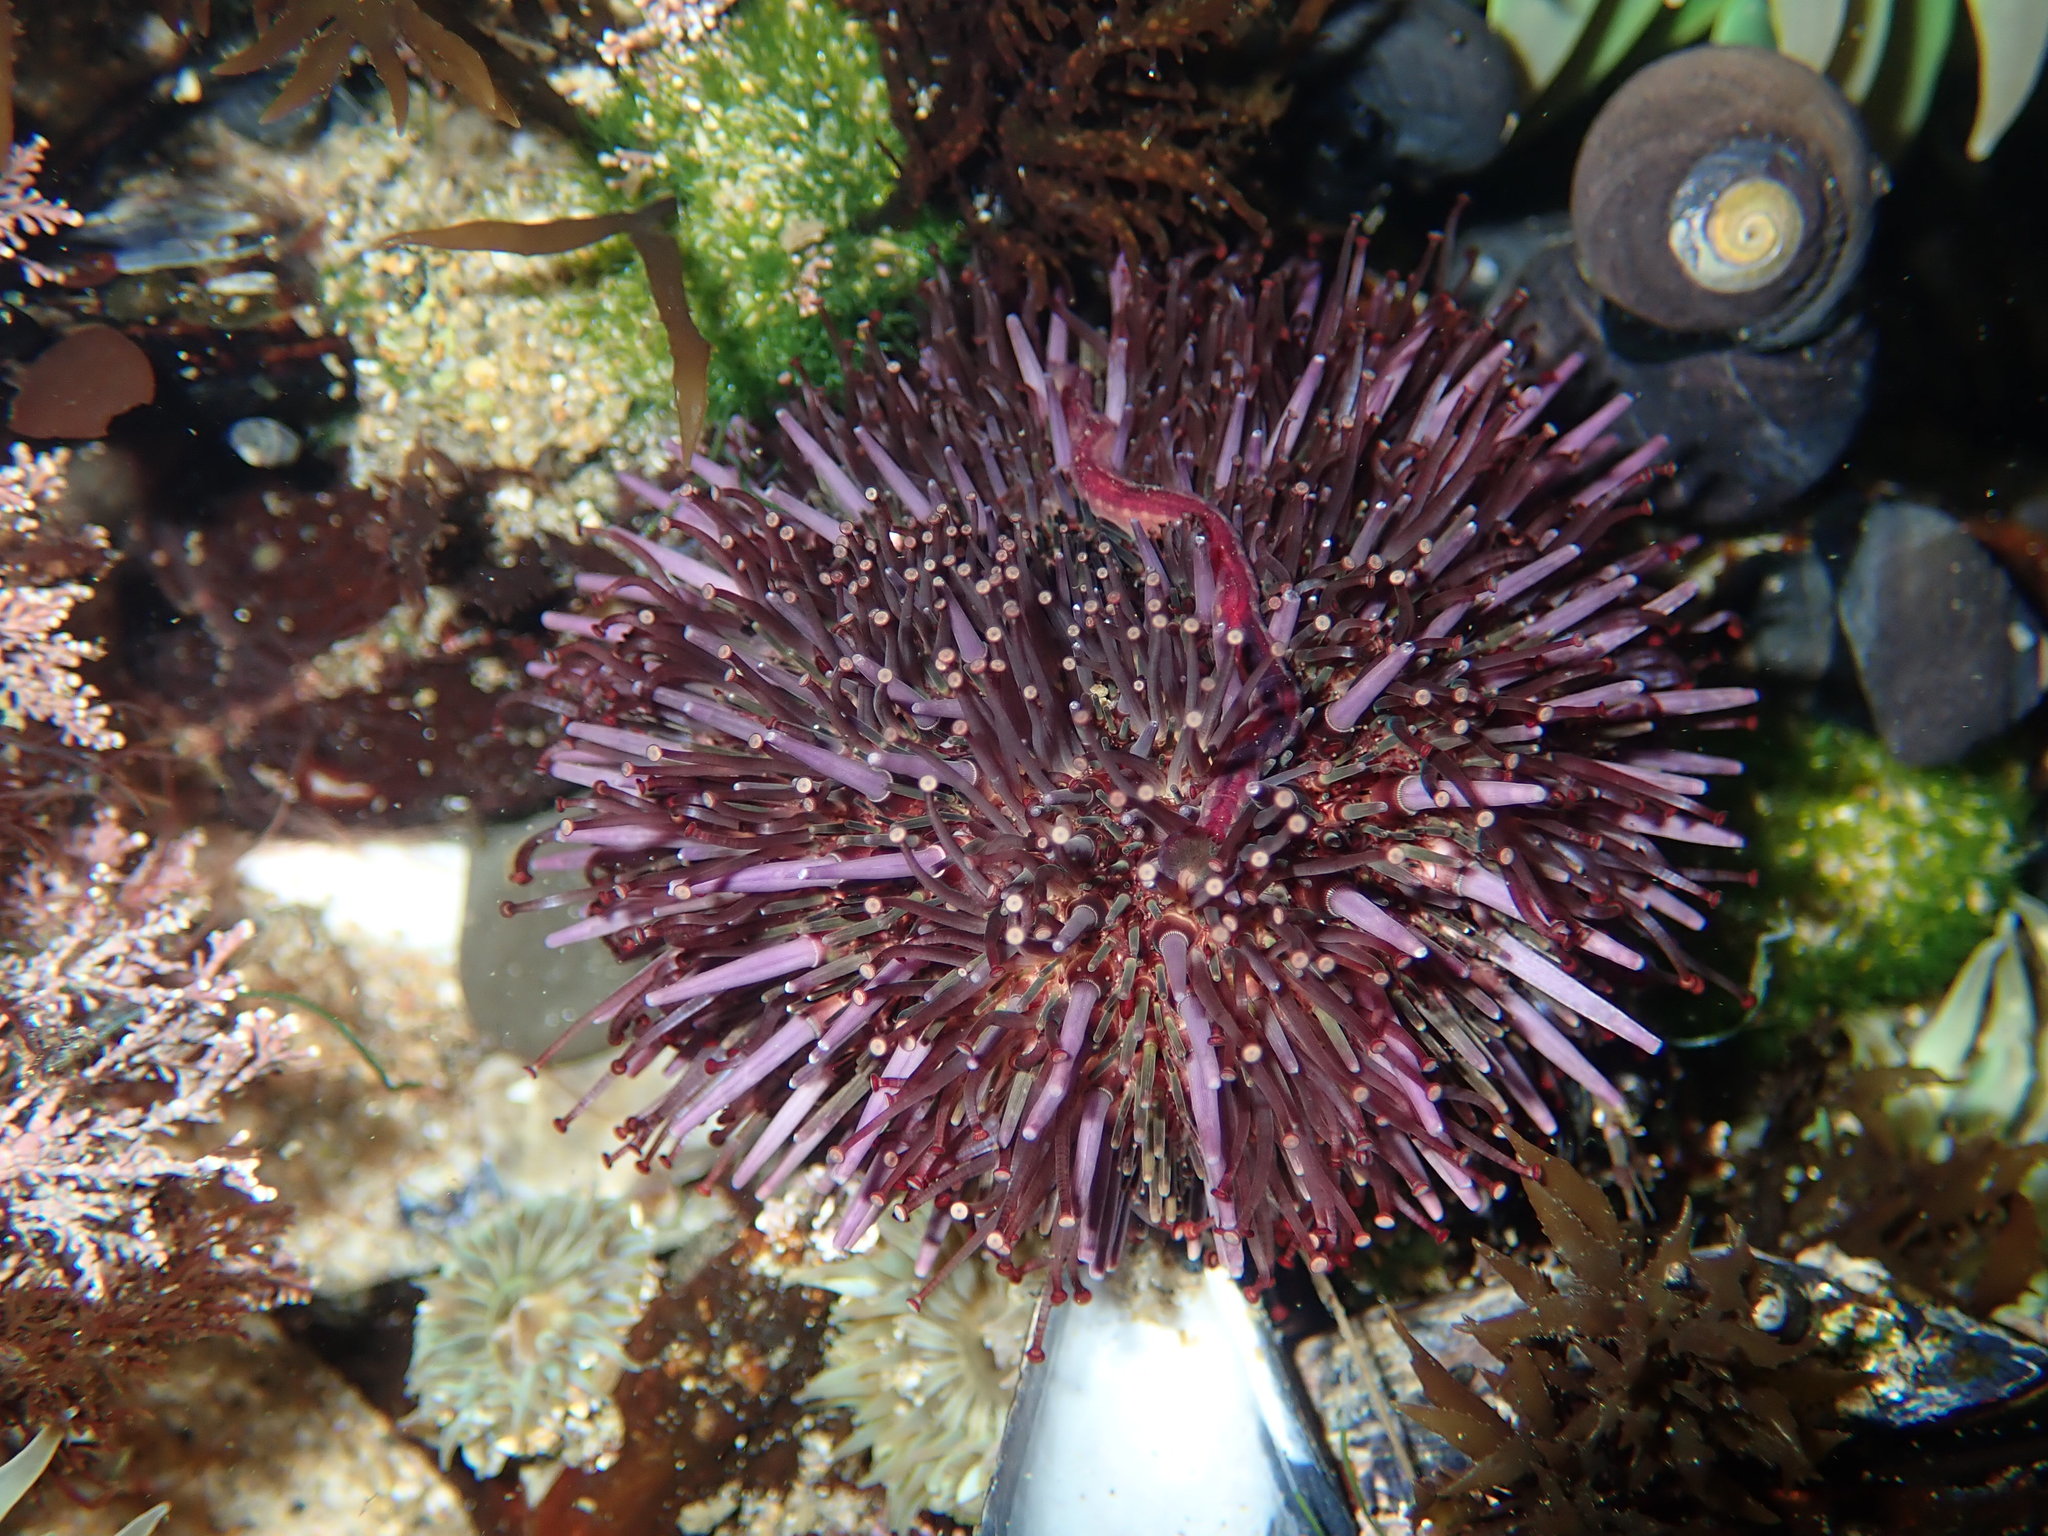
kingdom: Animalia
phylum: Annelida
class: Polychaeta
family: Flabelligeridae
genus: Flabesymbios
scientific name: Flabesymbios commensalis
